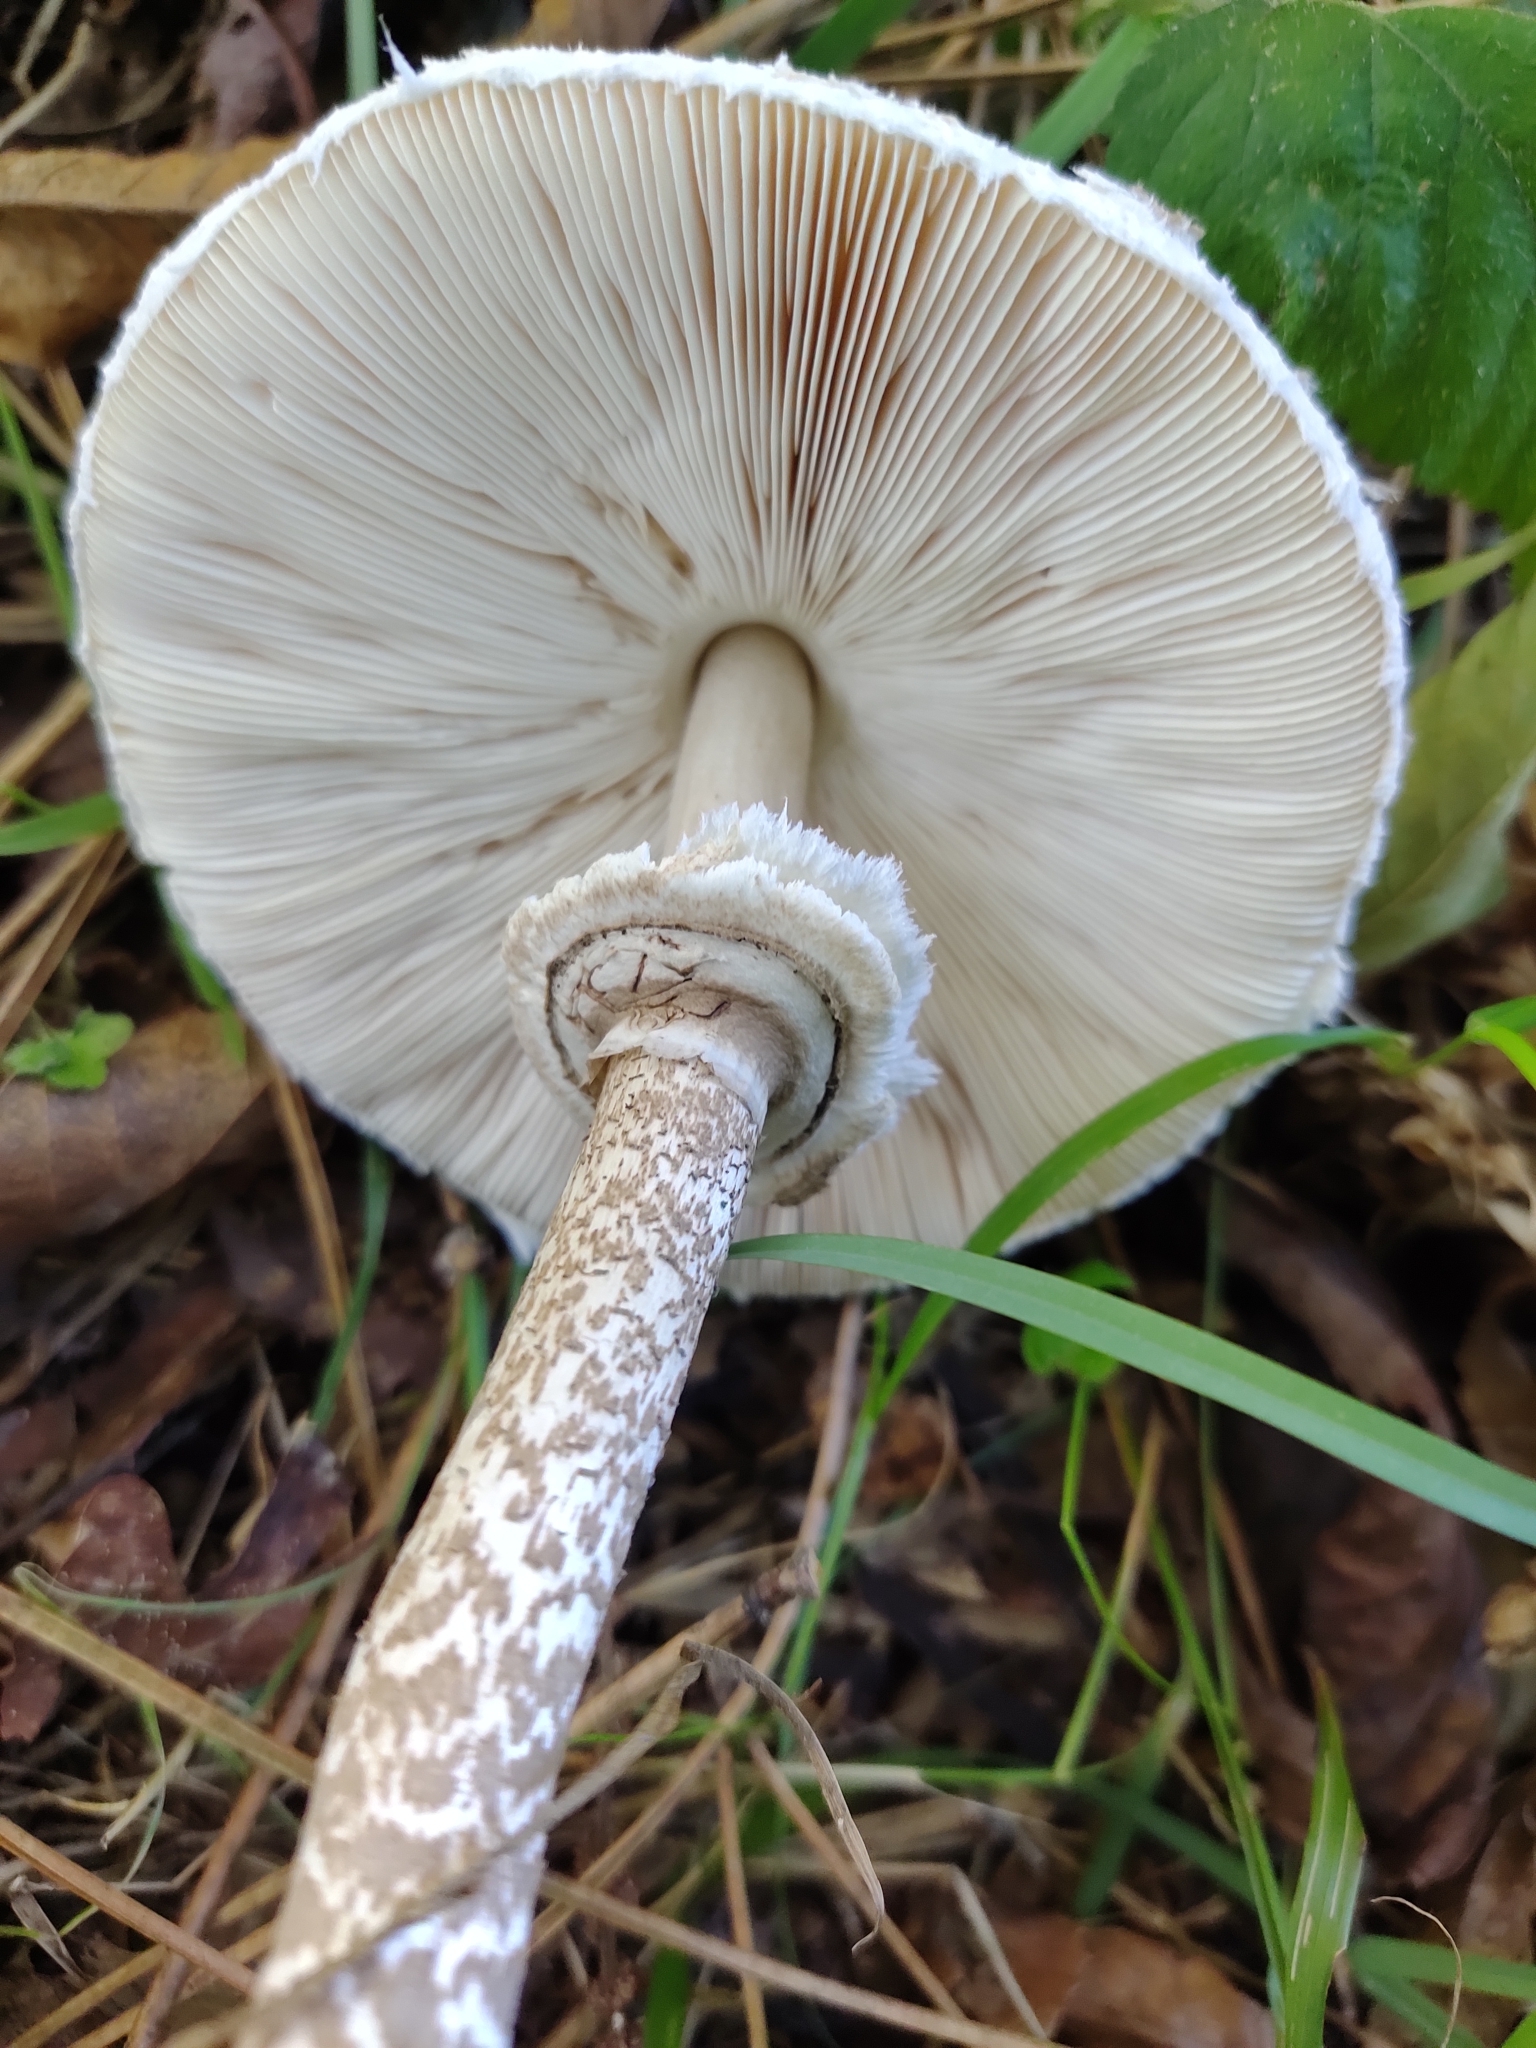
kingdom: Fungi
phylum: Basidiomycota
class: Agaricomycetes
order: Agaricales
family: Agaricaceae
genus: Macrolepiota
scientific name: Macrolepiota procera
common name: Parasol
